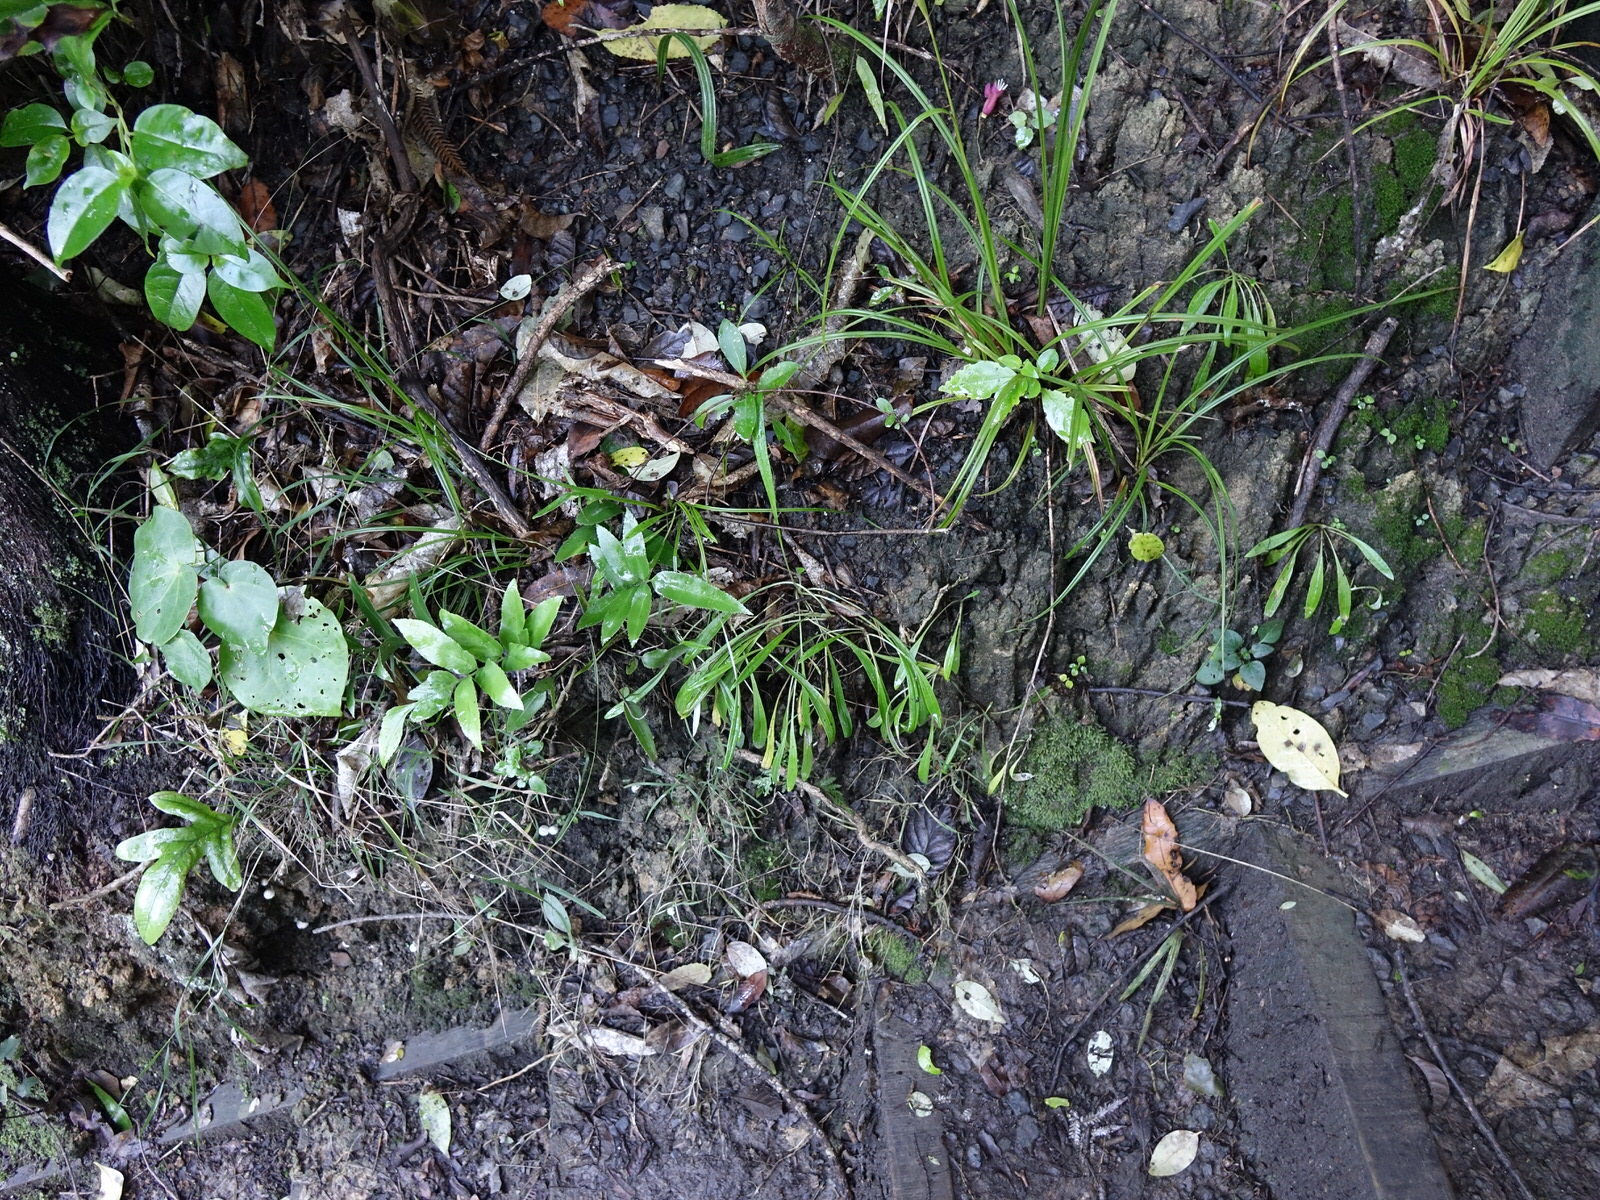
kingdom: Plantae
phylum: Tracheophyta
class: Magnoliopsida
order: Asterales
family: Asteraceae
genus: Euchiton
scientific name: Euchiton japonicus
